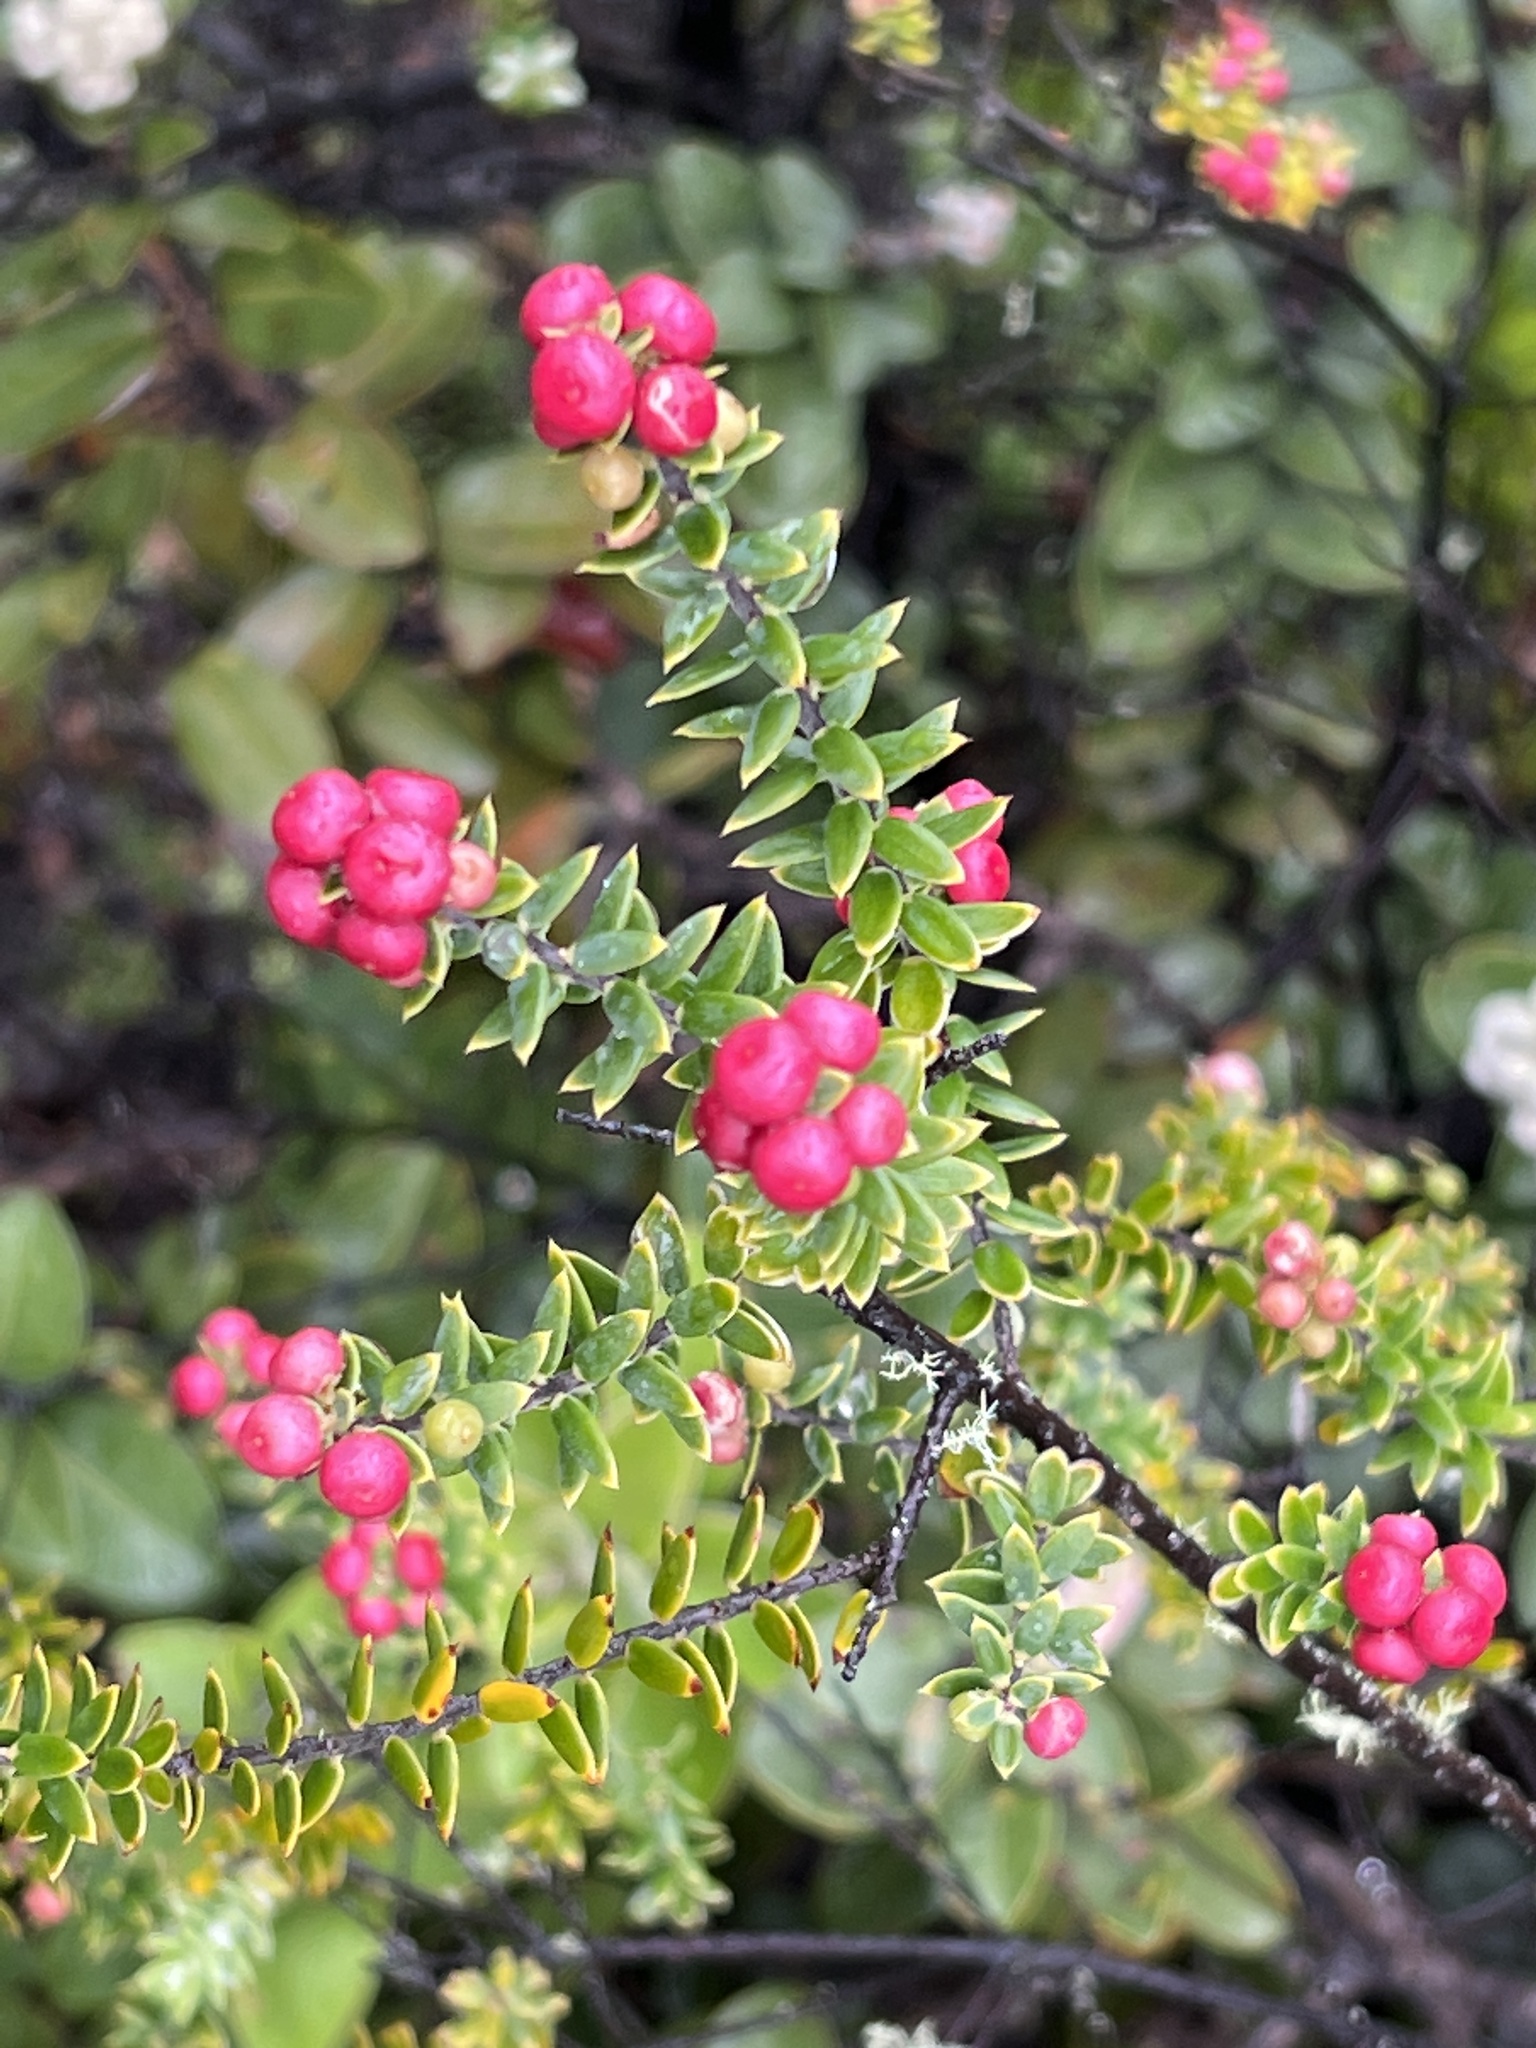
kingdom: Plantae
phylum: Tracheophyta
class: Magnoliopsida
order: Ericales
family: Ericaceae
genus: Leptecophylla
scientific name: Leptecophylla tameiameiae
